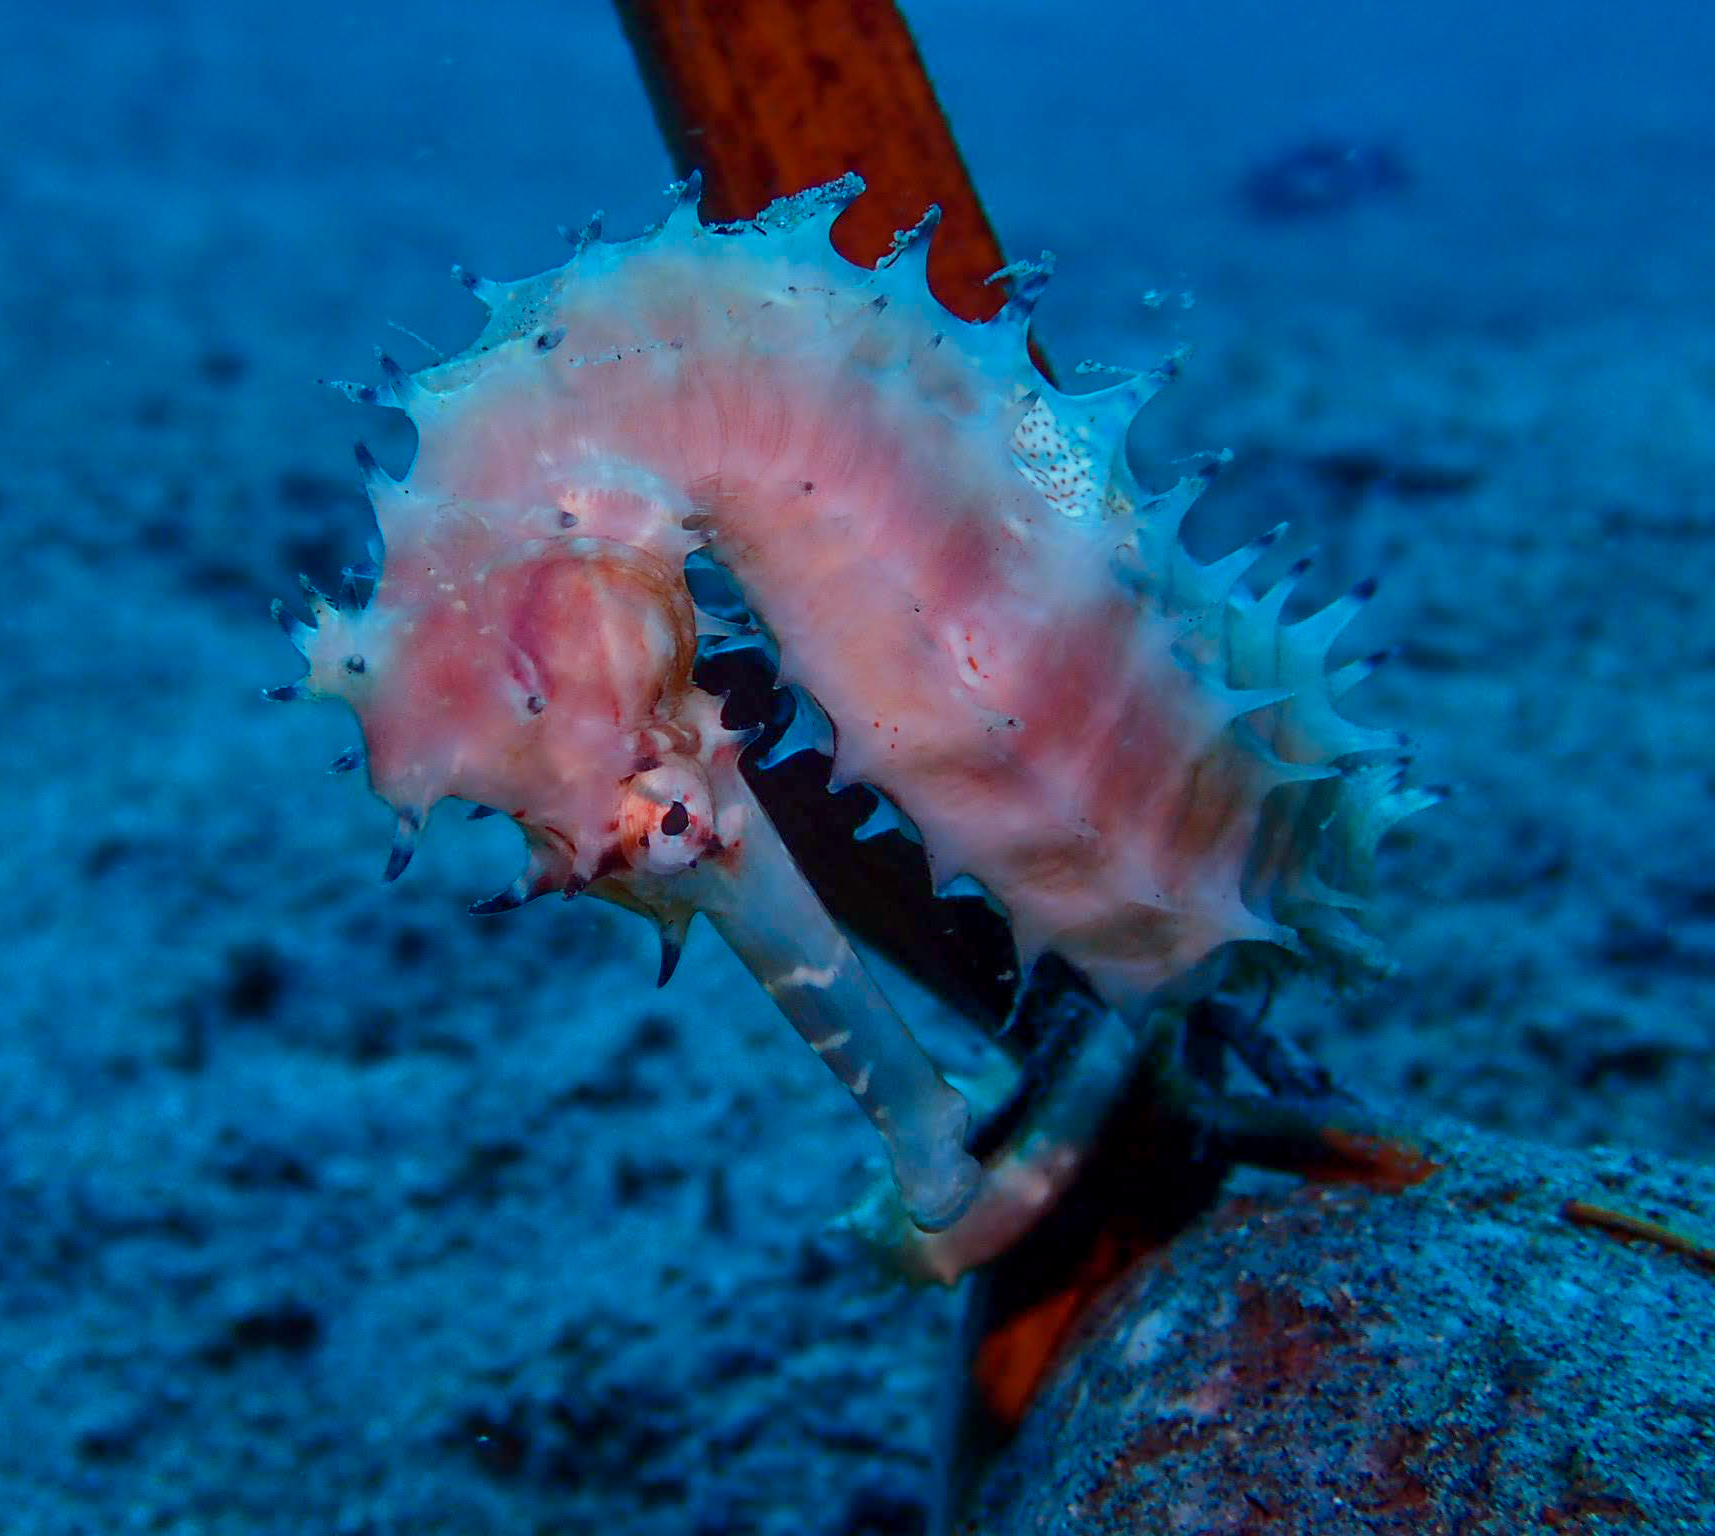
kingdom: Animalia
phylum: Chordata
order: Syngnathiformes
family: Syngnathidae
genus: Hippocampus
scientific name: Hippocampus histrix
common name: Longspine seahorse
